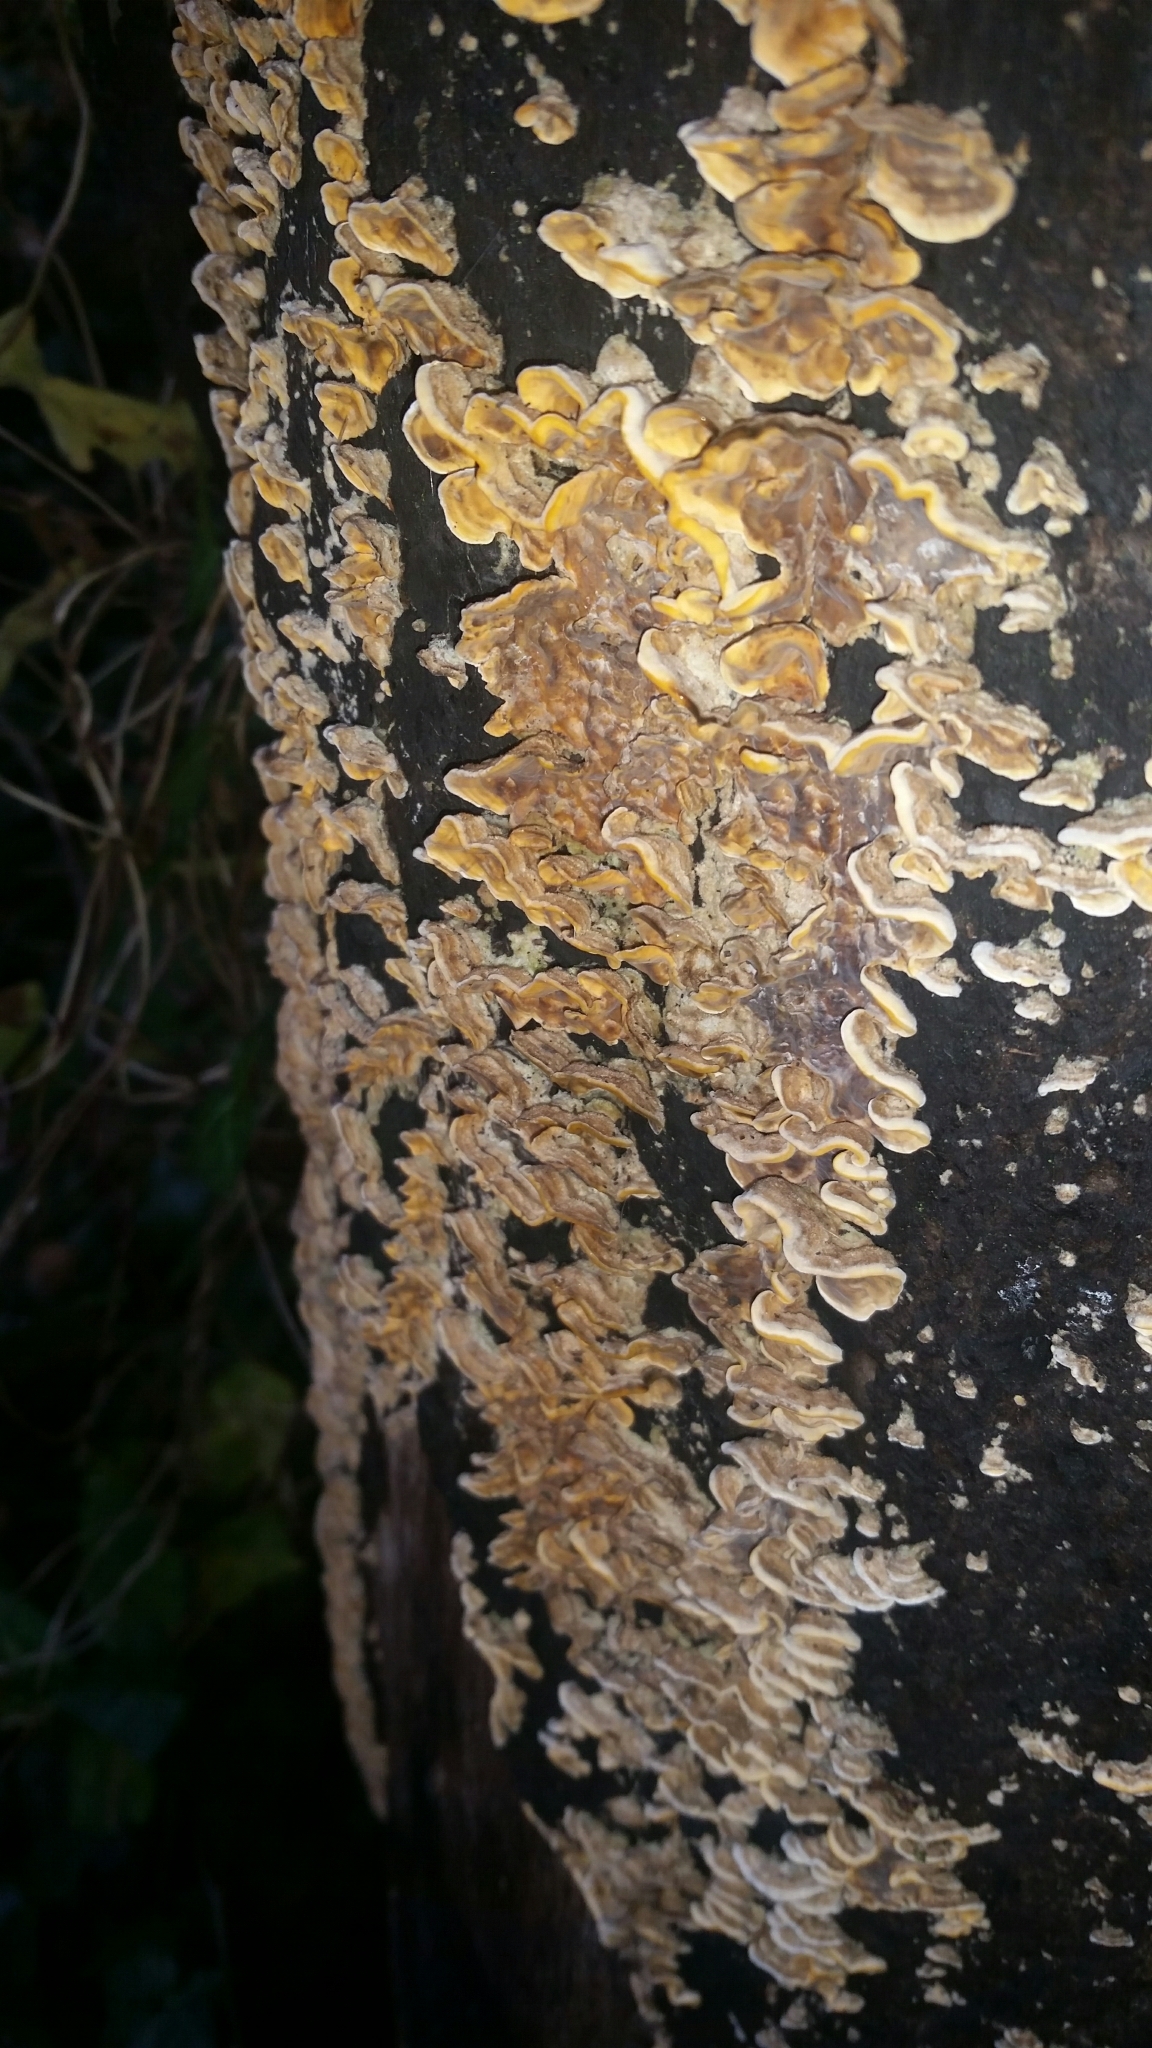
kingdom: Fungi
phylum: Basidiomycota
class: Agaricomycetes
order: Russulales
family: Stereaceae
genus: Stereum
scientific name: Stereum hirsutum
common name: Hairy curtain crust
